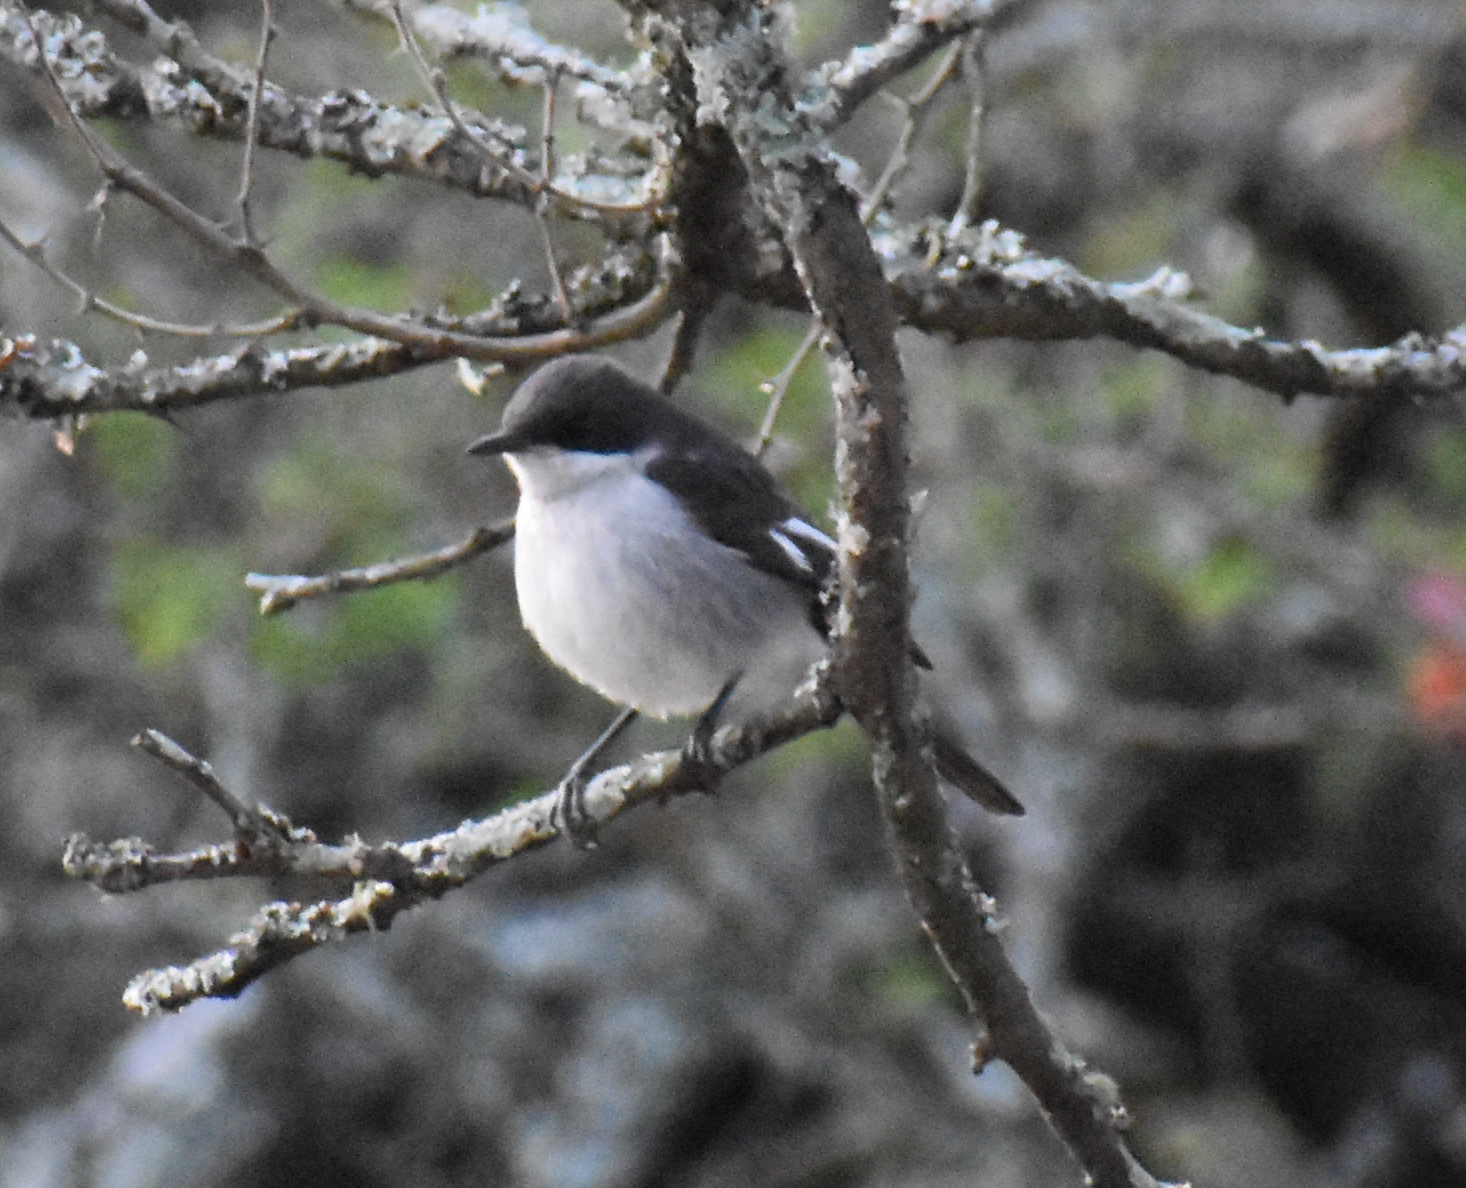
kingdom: Animalia
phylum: Chordata
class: Aves
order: Passeriformes
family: Muscicapidae
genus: Sigelus
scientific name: Sigelus silens
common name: Fiscal flycatcher
